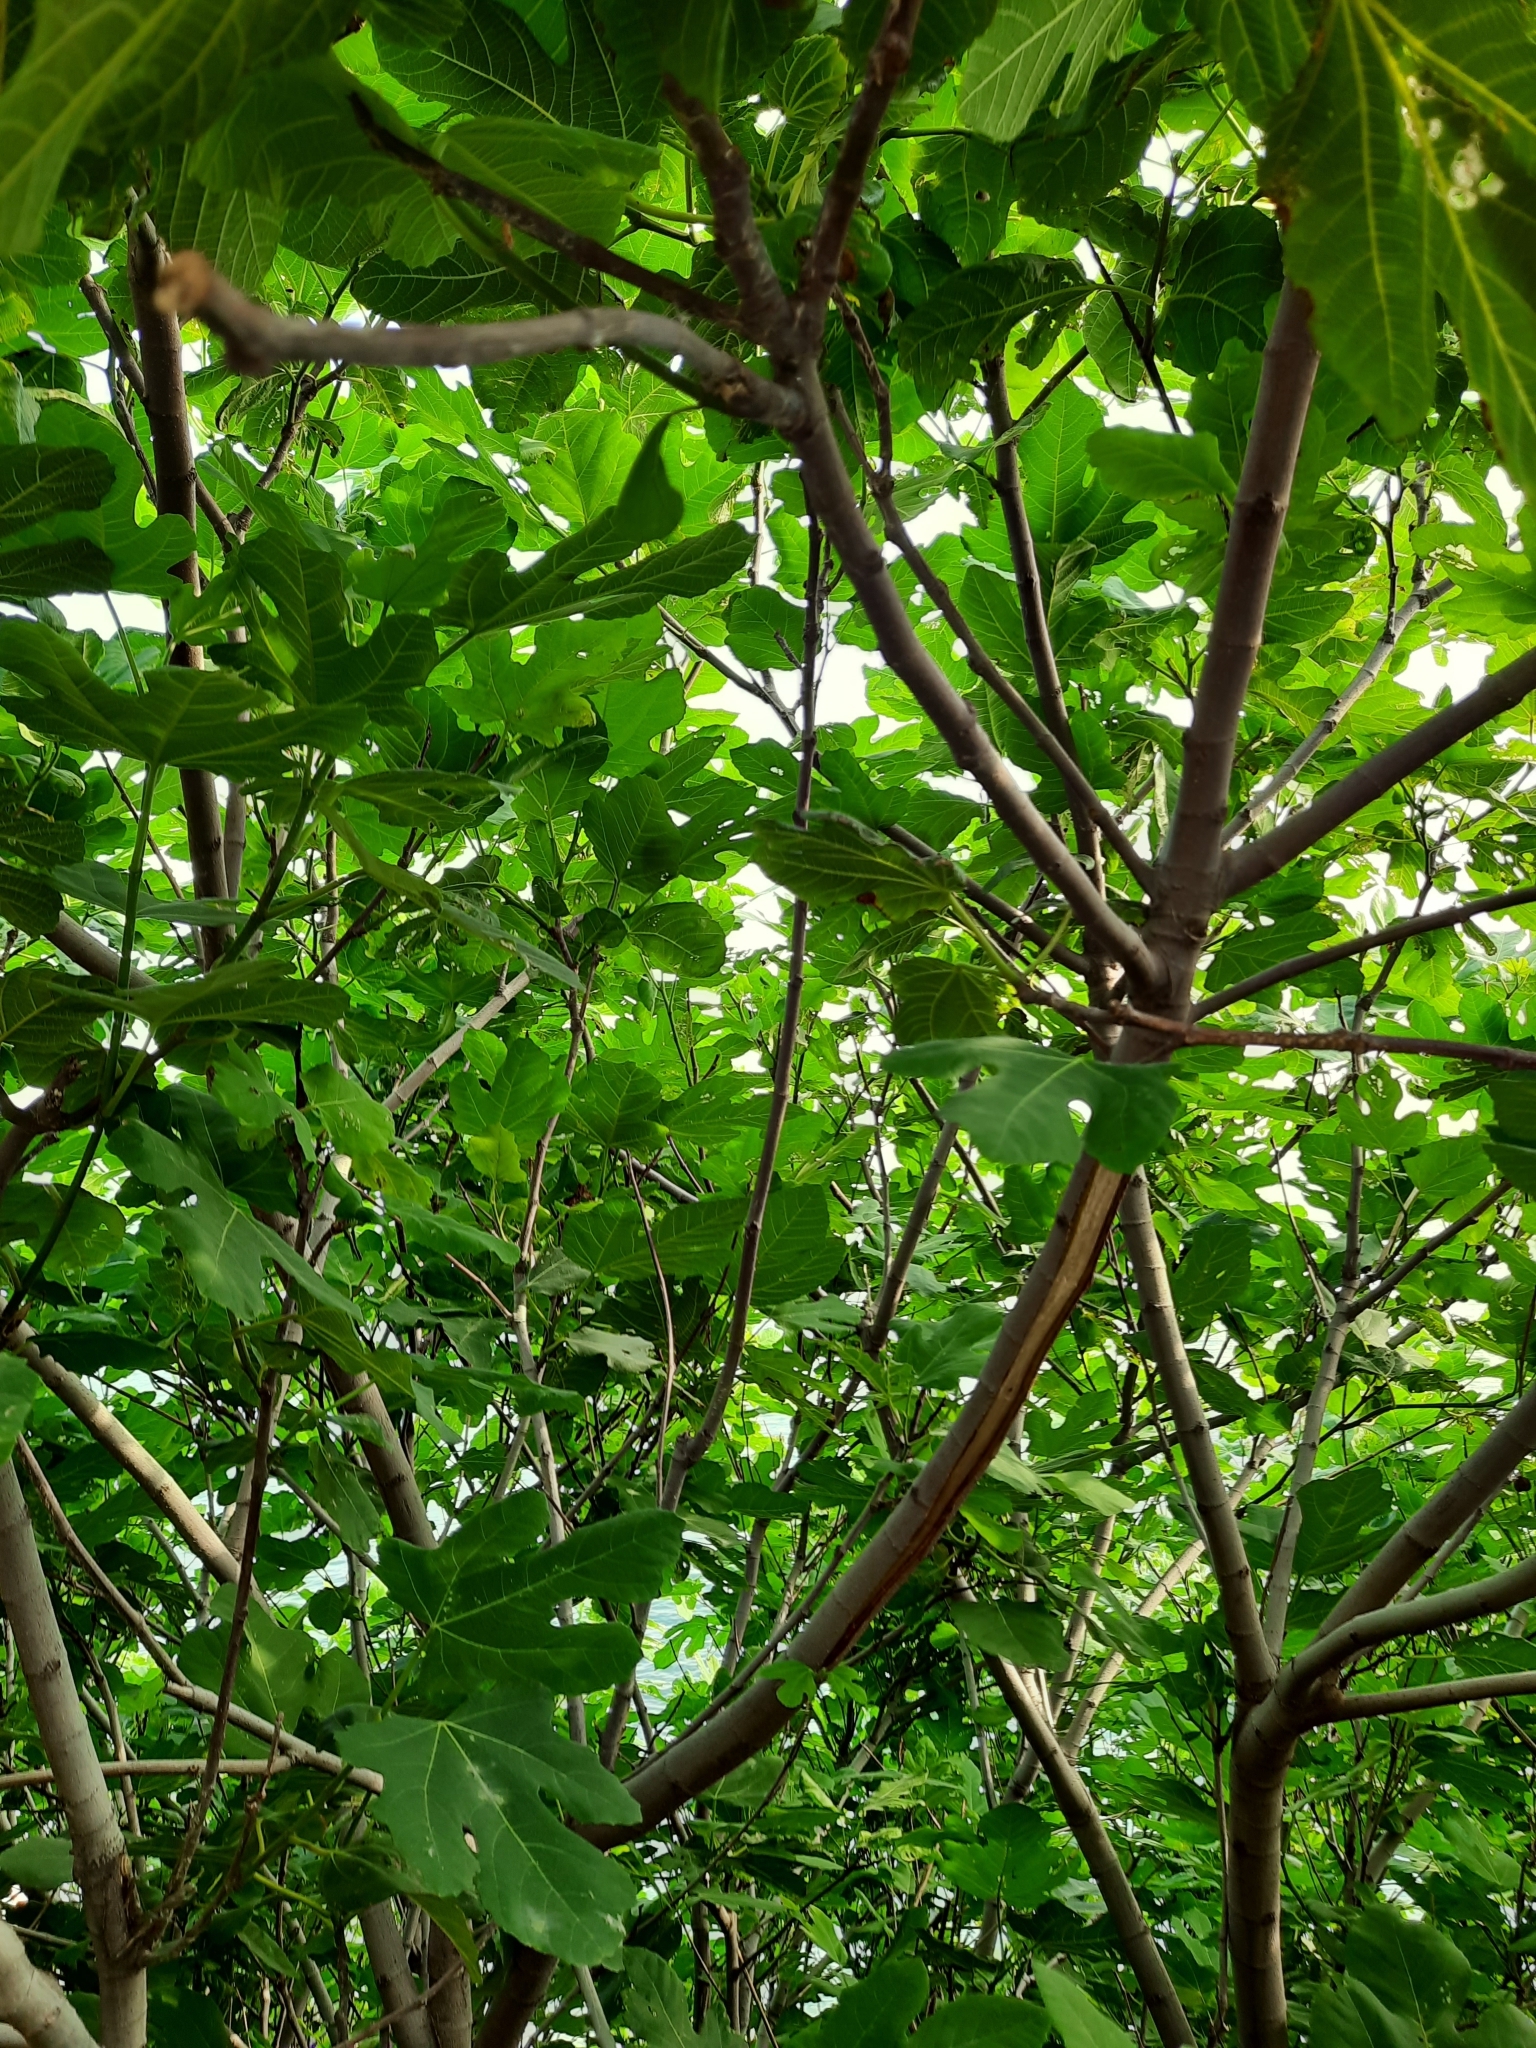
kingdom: Plantae
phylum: Tracheophyta
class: Magnoliopsida
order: Rosales
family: Moraceae
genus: Ficus
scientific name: Ficus carica
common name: Fig
